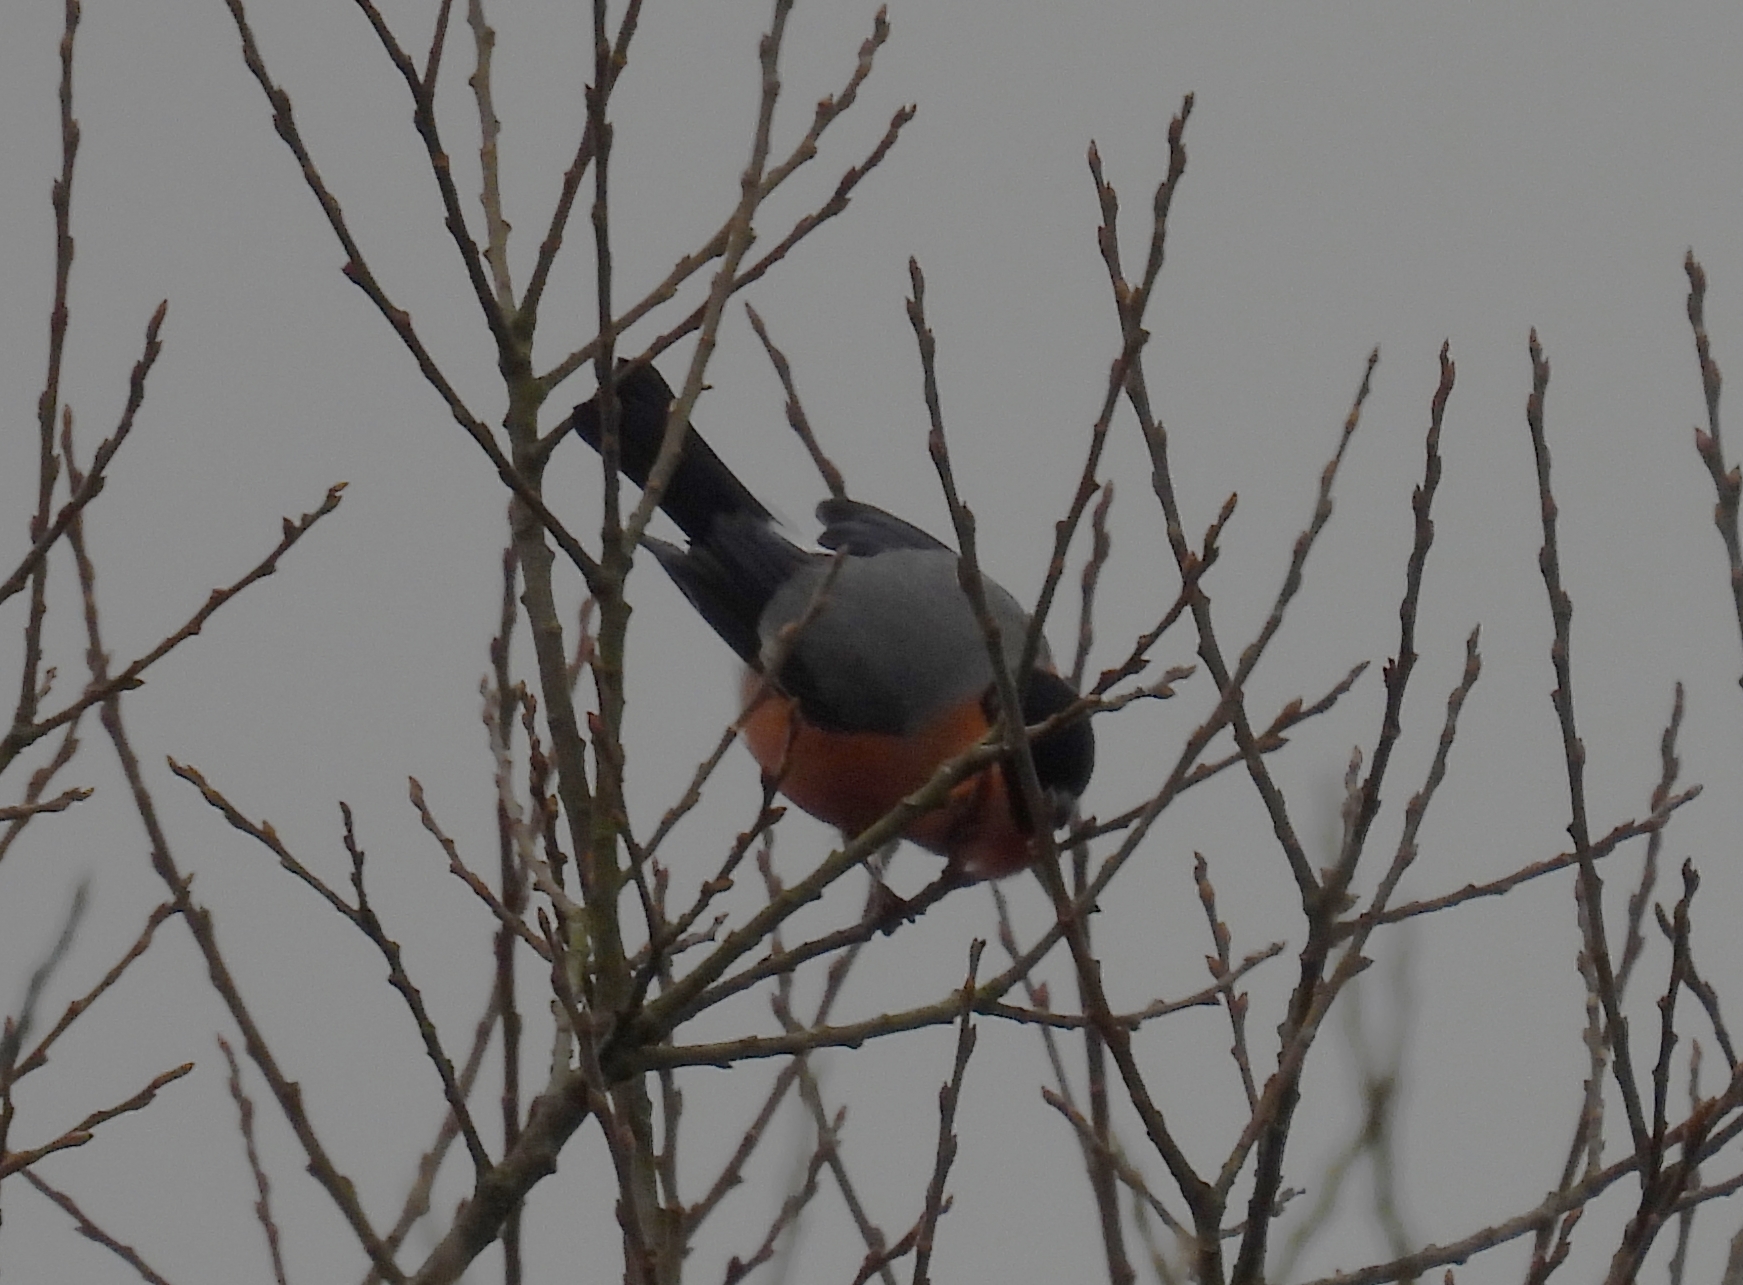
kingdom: Animalia
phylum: Chordata
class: Aves
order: Passeriformes
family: Fringillidae
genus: Pyrrhula
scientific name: Pyrrhula pyrrhula
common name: Eurasian bullfinch
